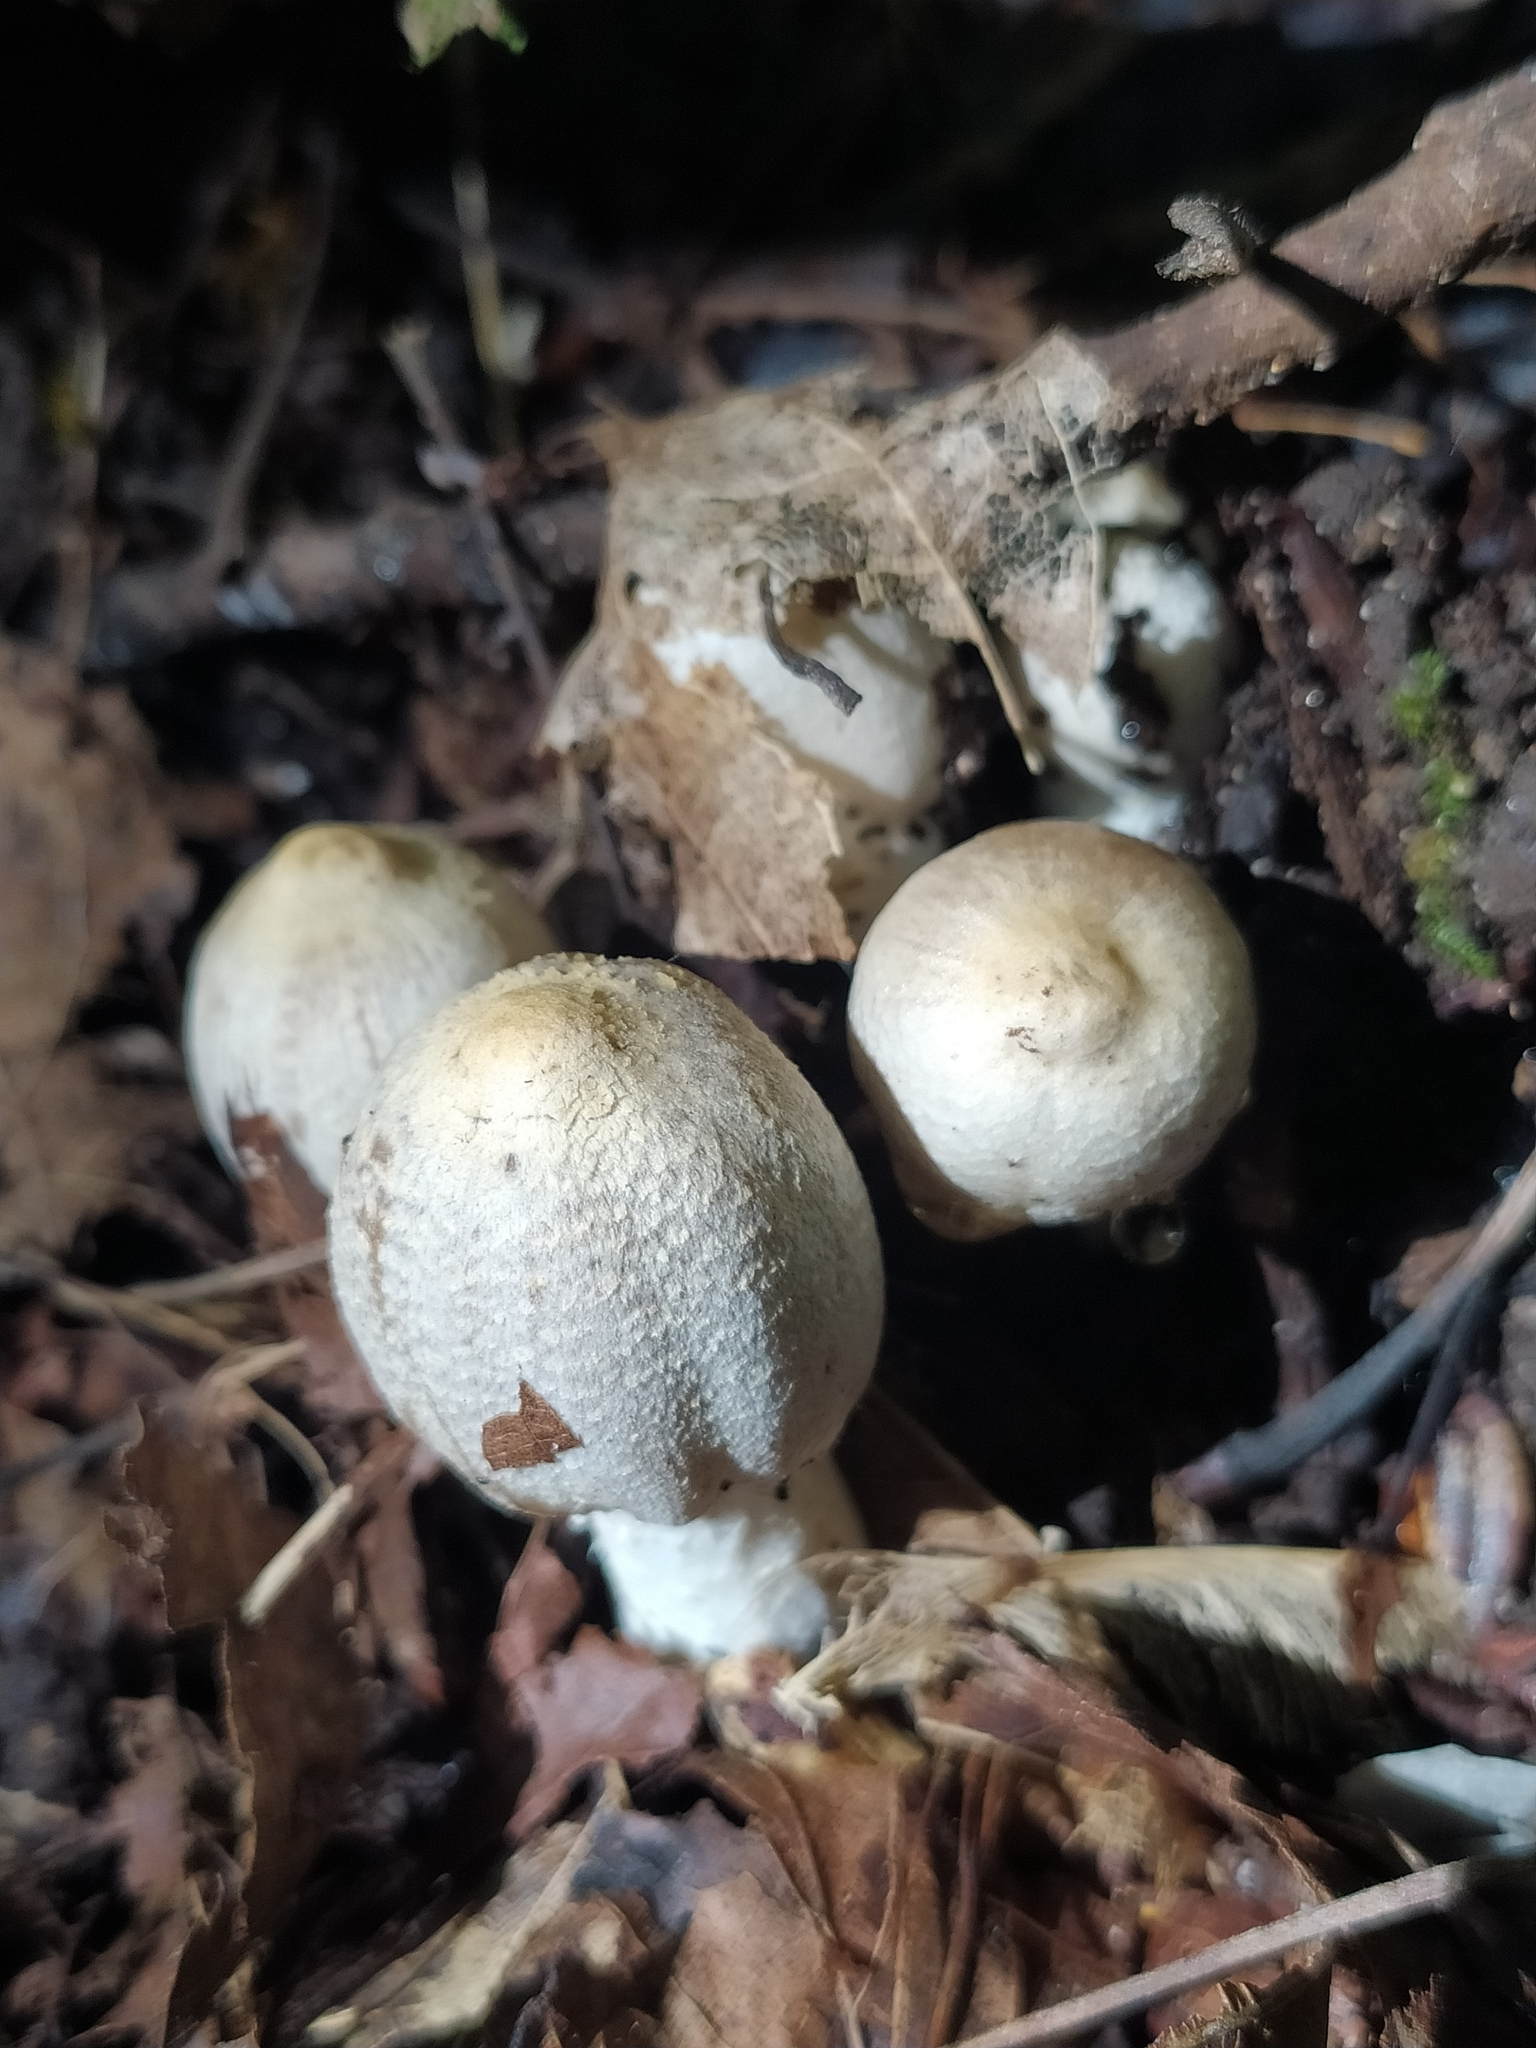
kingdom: Fungi
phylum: Basidiomycota
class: Agaricomycetes
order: Agaricales
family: Psathyrellaceae
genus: Coprinopsis
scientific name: Coprinopsis strossmayeri
